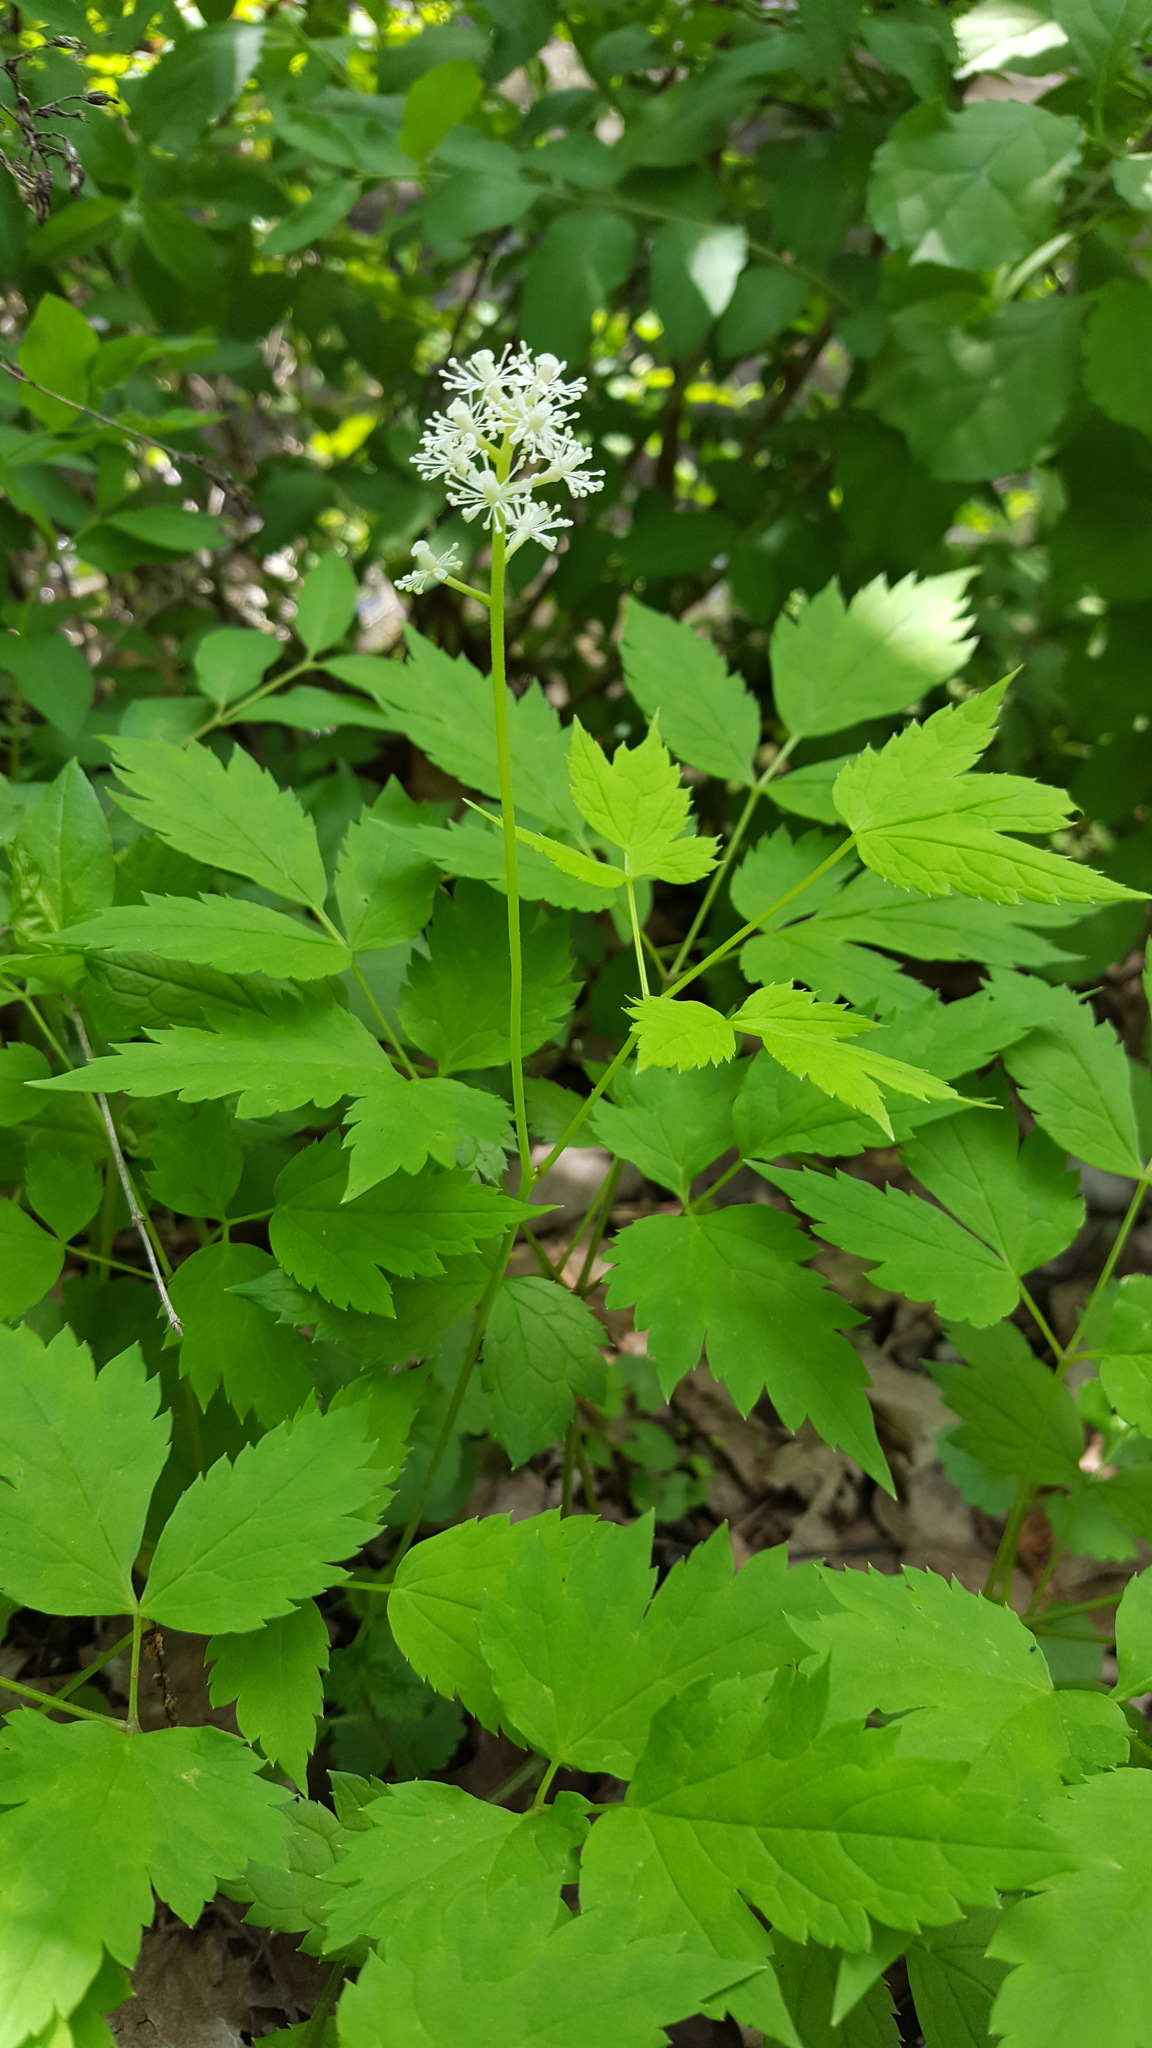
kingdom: Plantae
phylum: Tracheophyta
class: Magnoliopsida
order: Ranunculales
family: Ranunculaceae
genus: Actaea
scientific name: Actaea pachypoda
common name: Doll's-eyes
